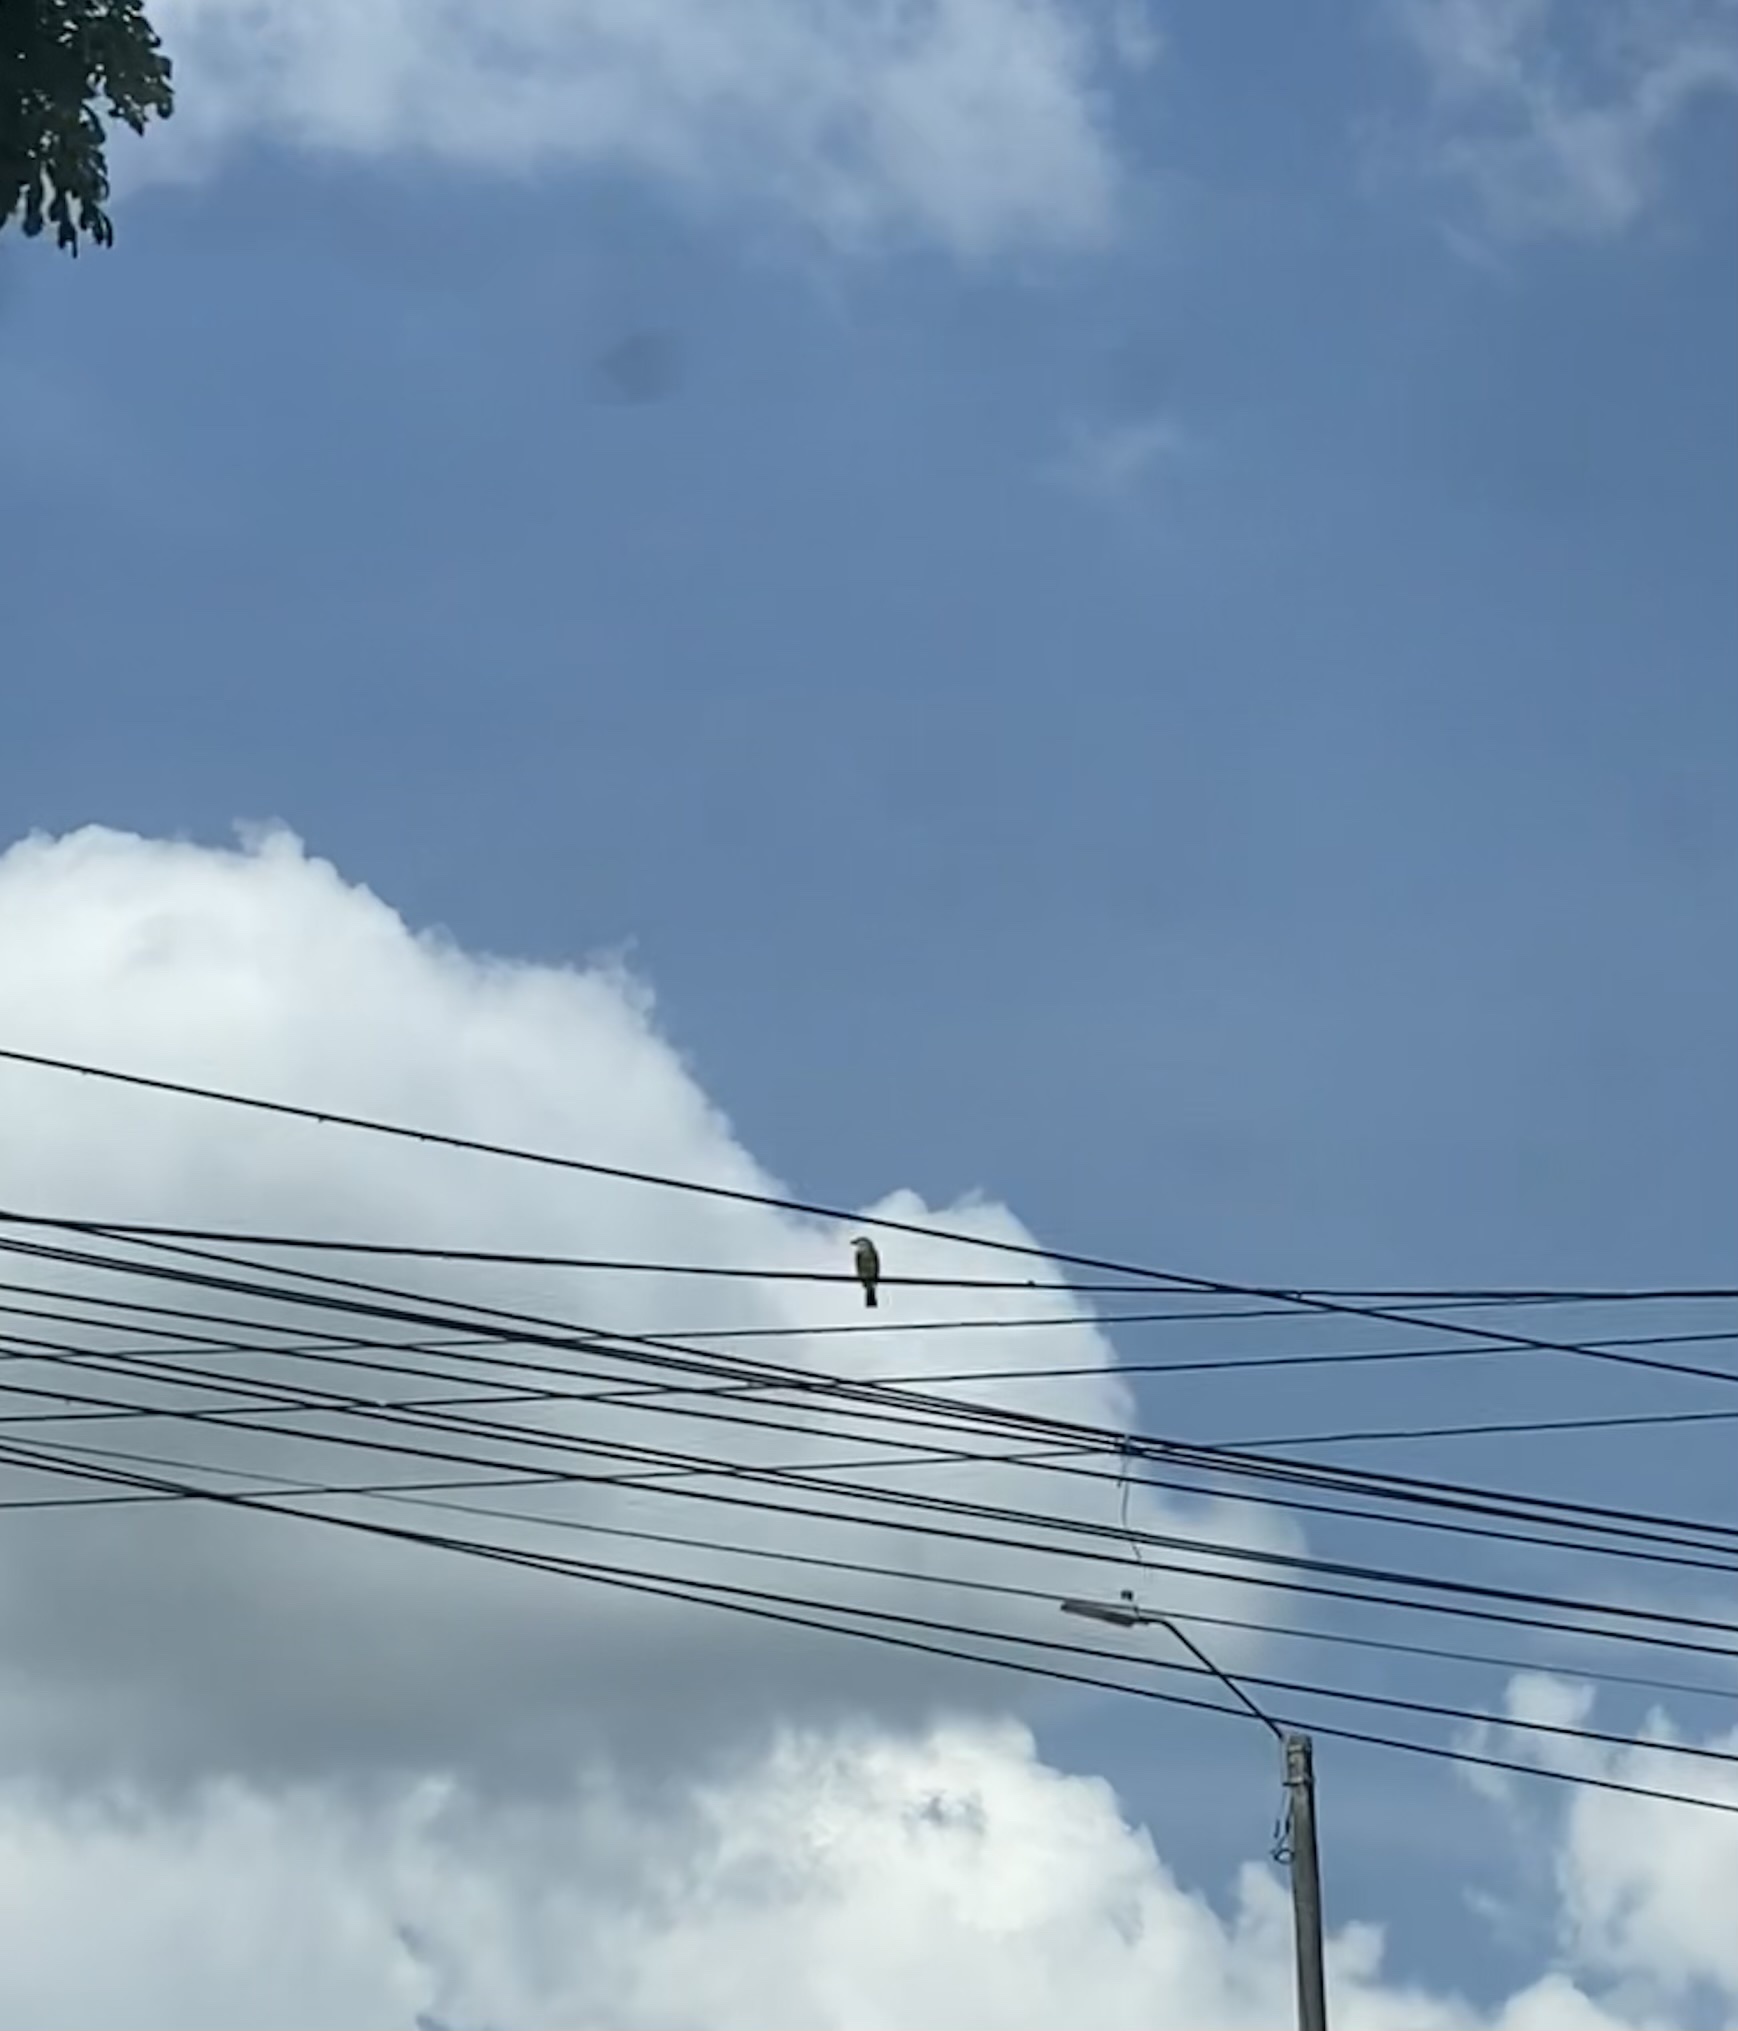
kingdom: Animalia
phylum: Chordata
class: Aves
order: Passeriformes
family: Tyrannidae
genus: Tyrannus
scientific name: Tyrannus melancholicus
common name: Tropical kingbird
